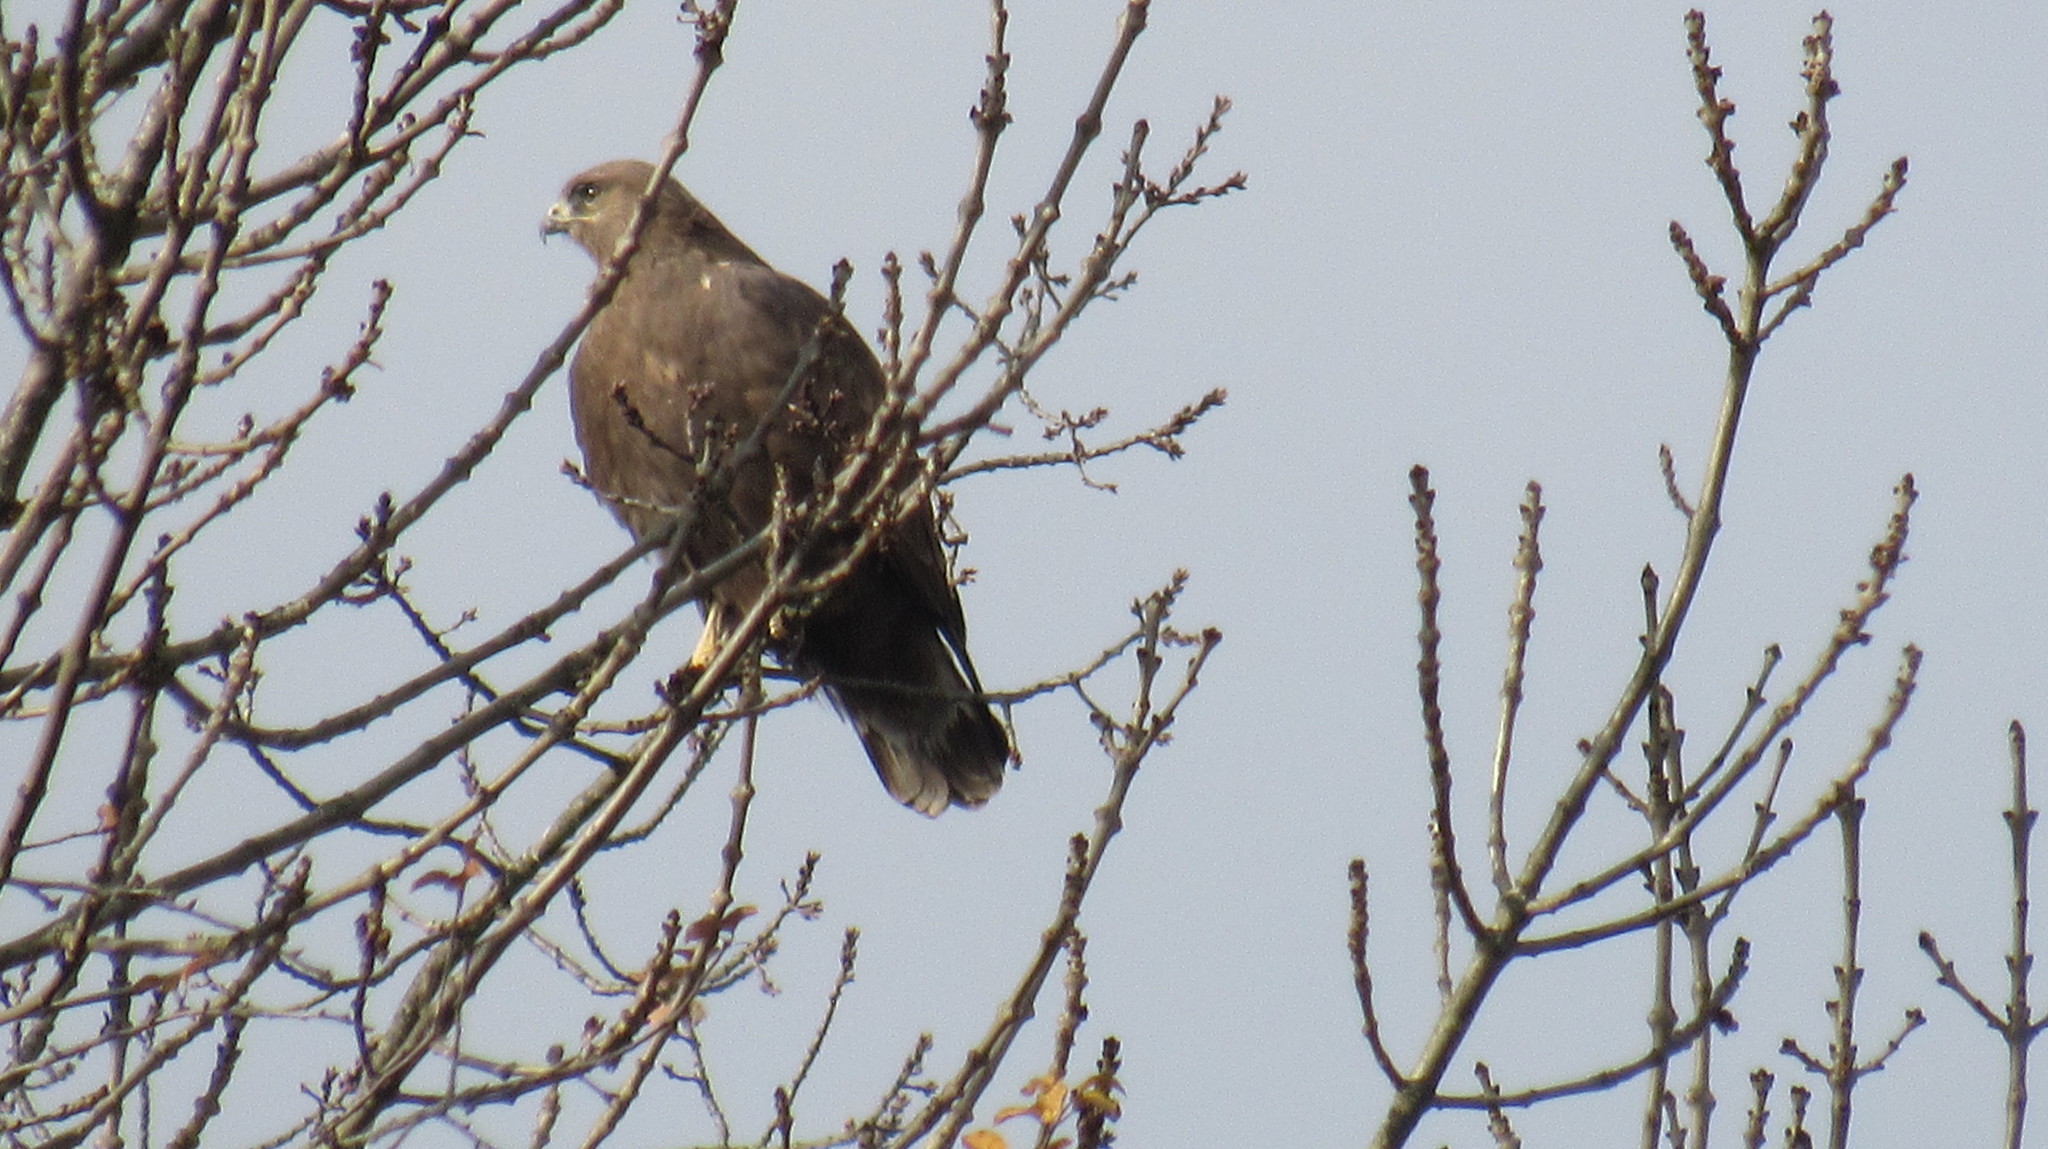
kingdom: Animalia
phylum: Chordata
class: Aves
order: Accipitriformes
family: Accipitridae
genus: Buteo
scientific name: Buteo rufinus
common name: Long-legged buzzard
